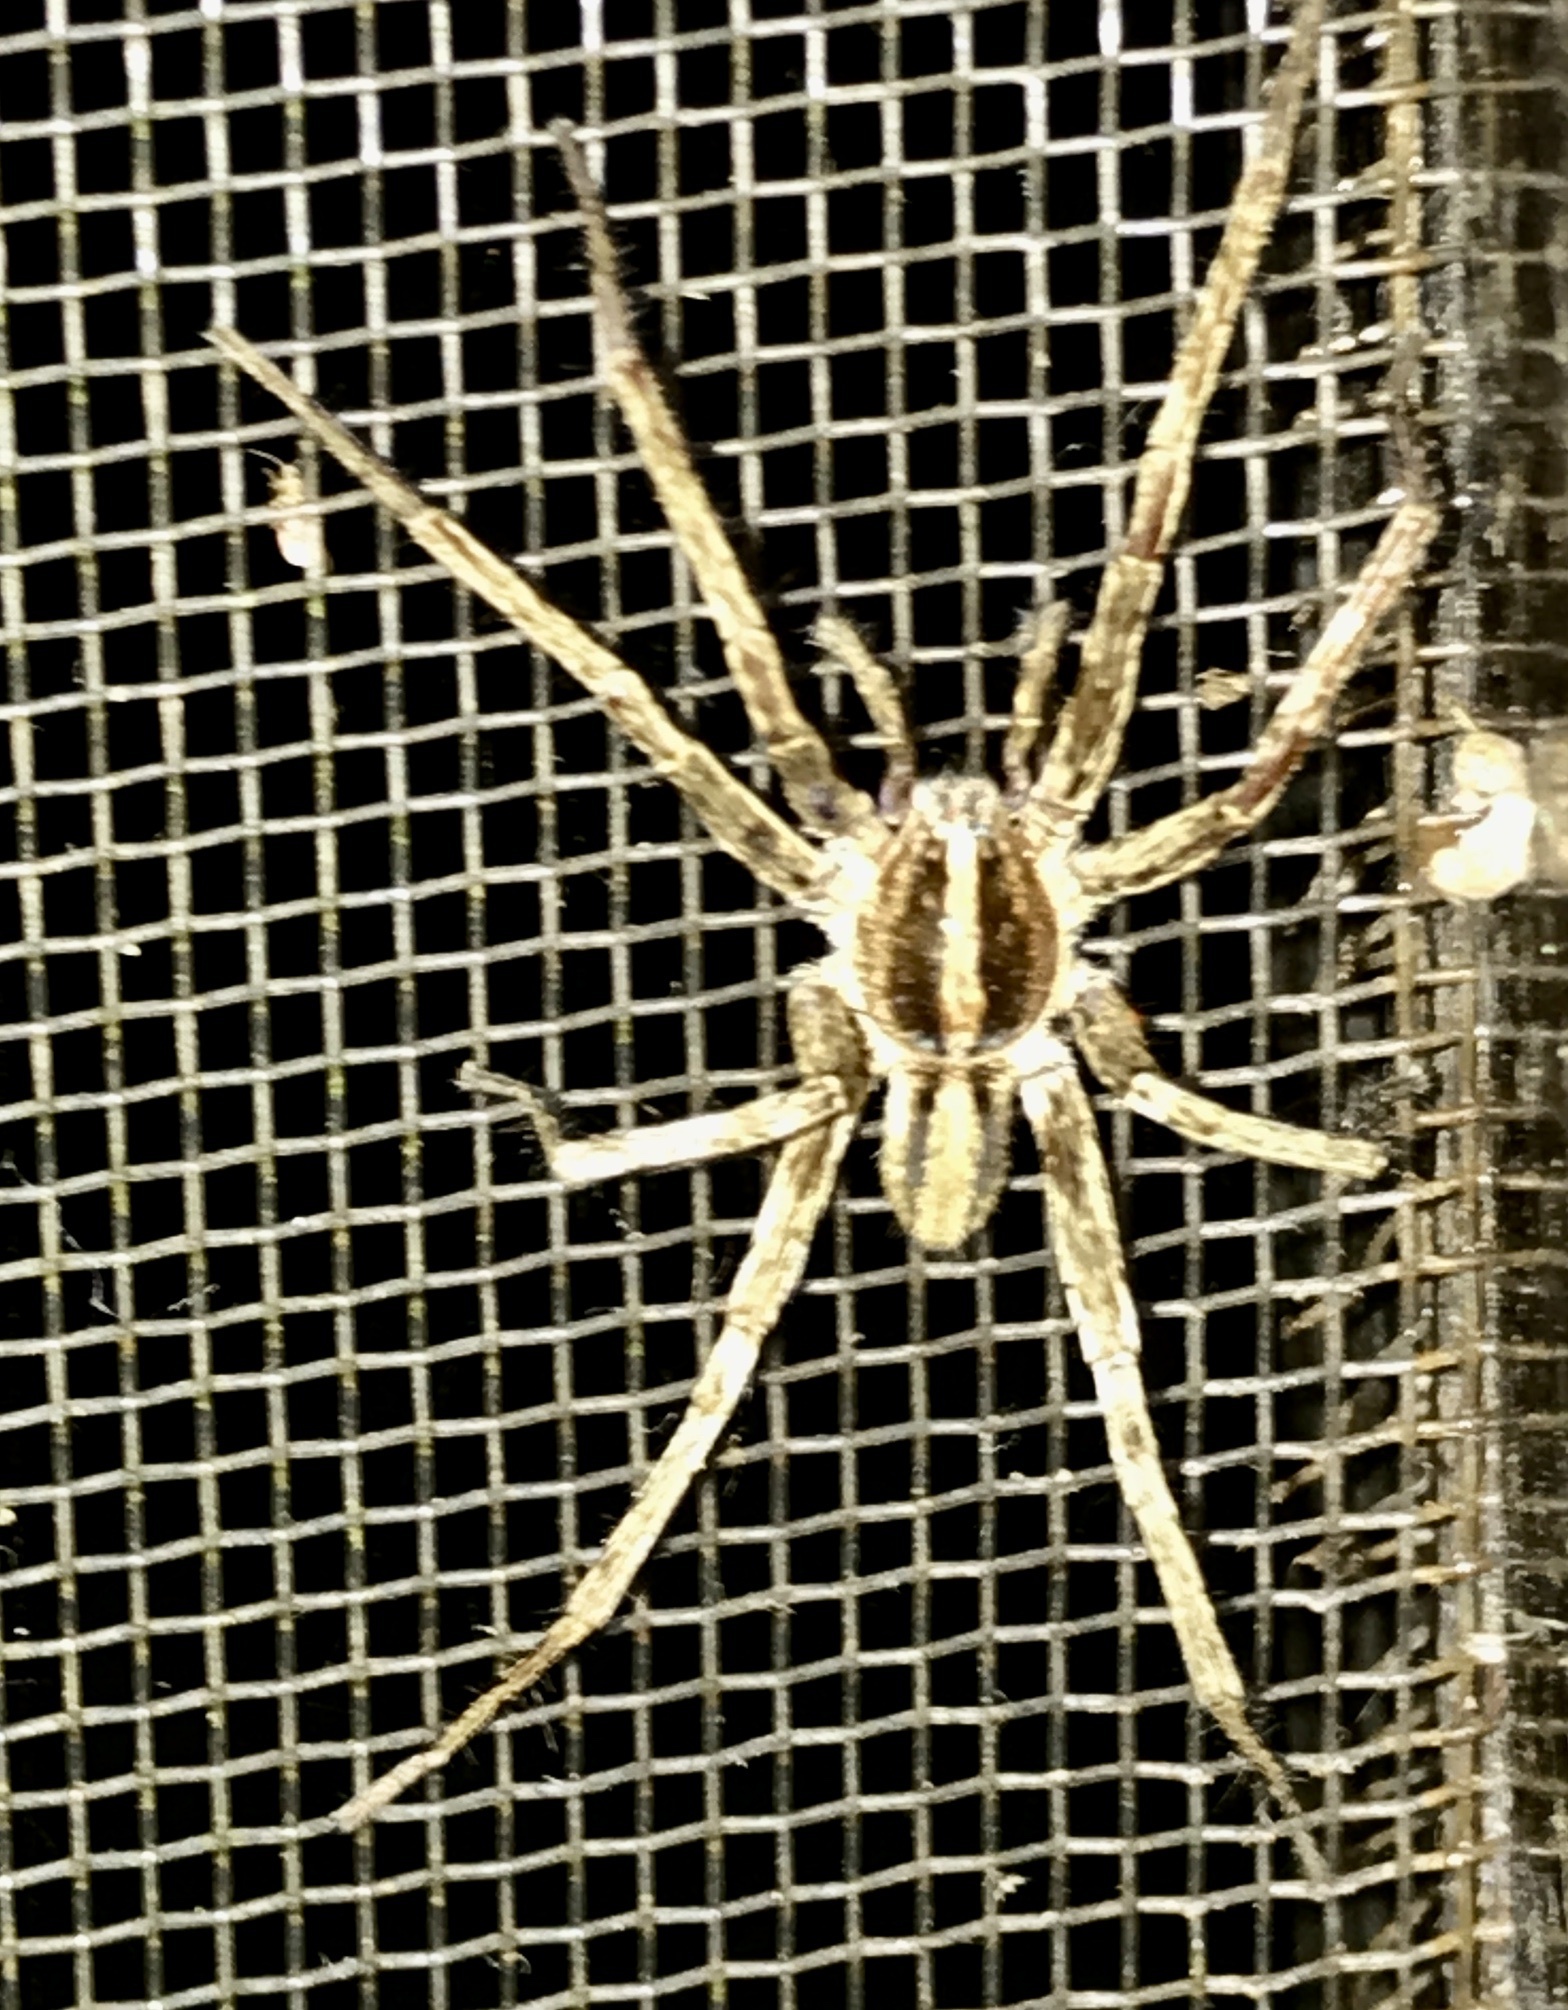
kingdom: Animalia
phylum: Arthropoda
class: Arachnida
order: Araneae
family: Ctenidae
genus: Parabatinga
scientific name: Parabatinga brevipes
